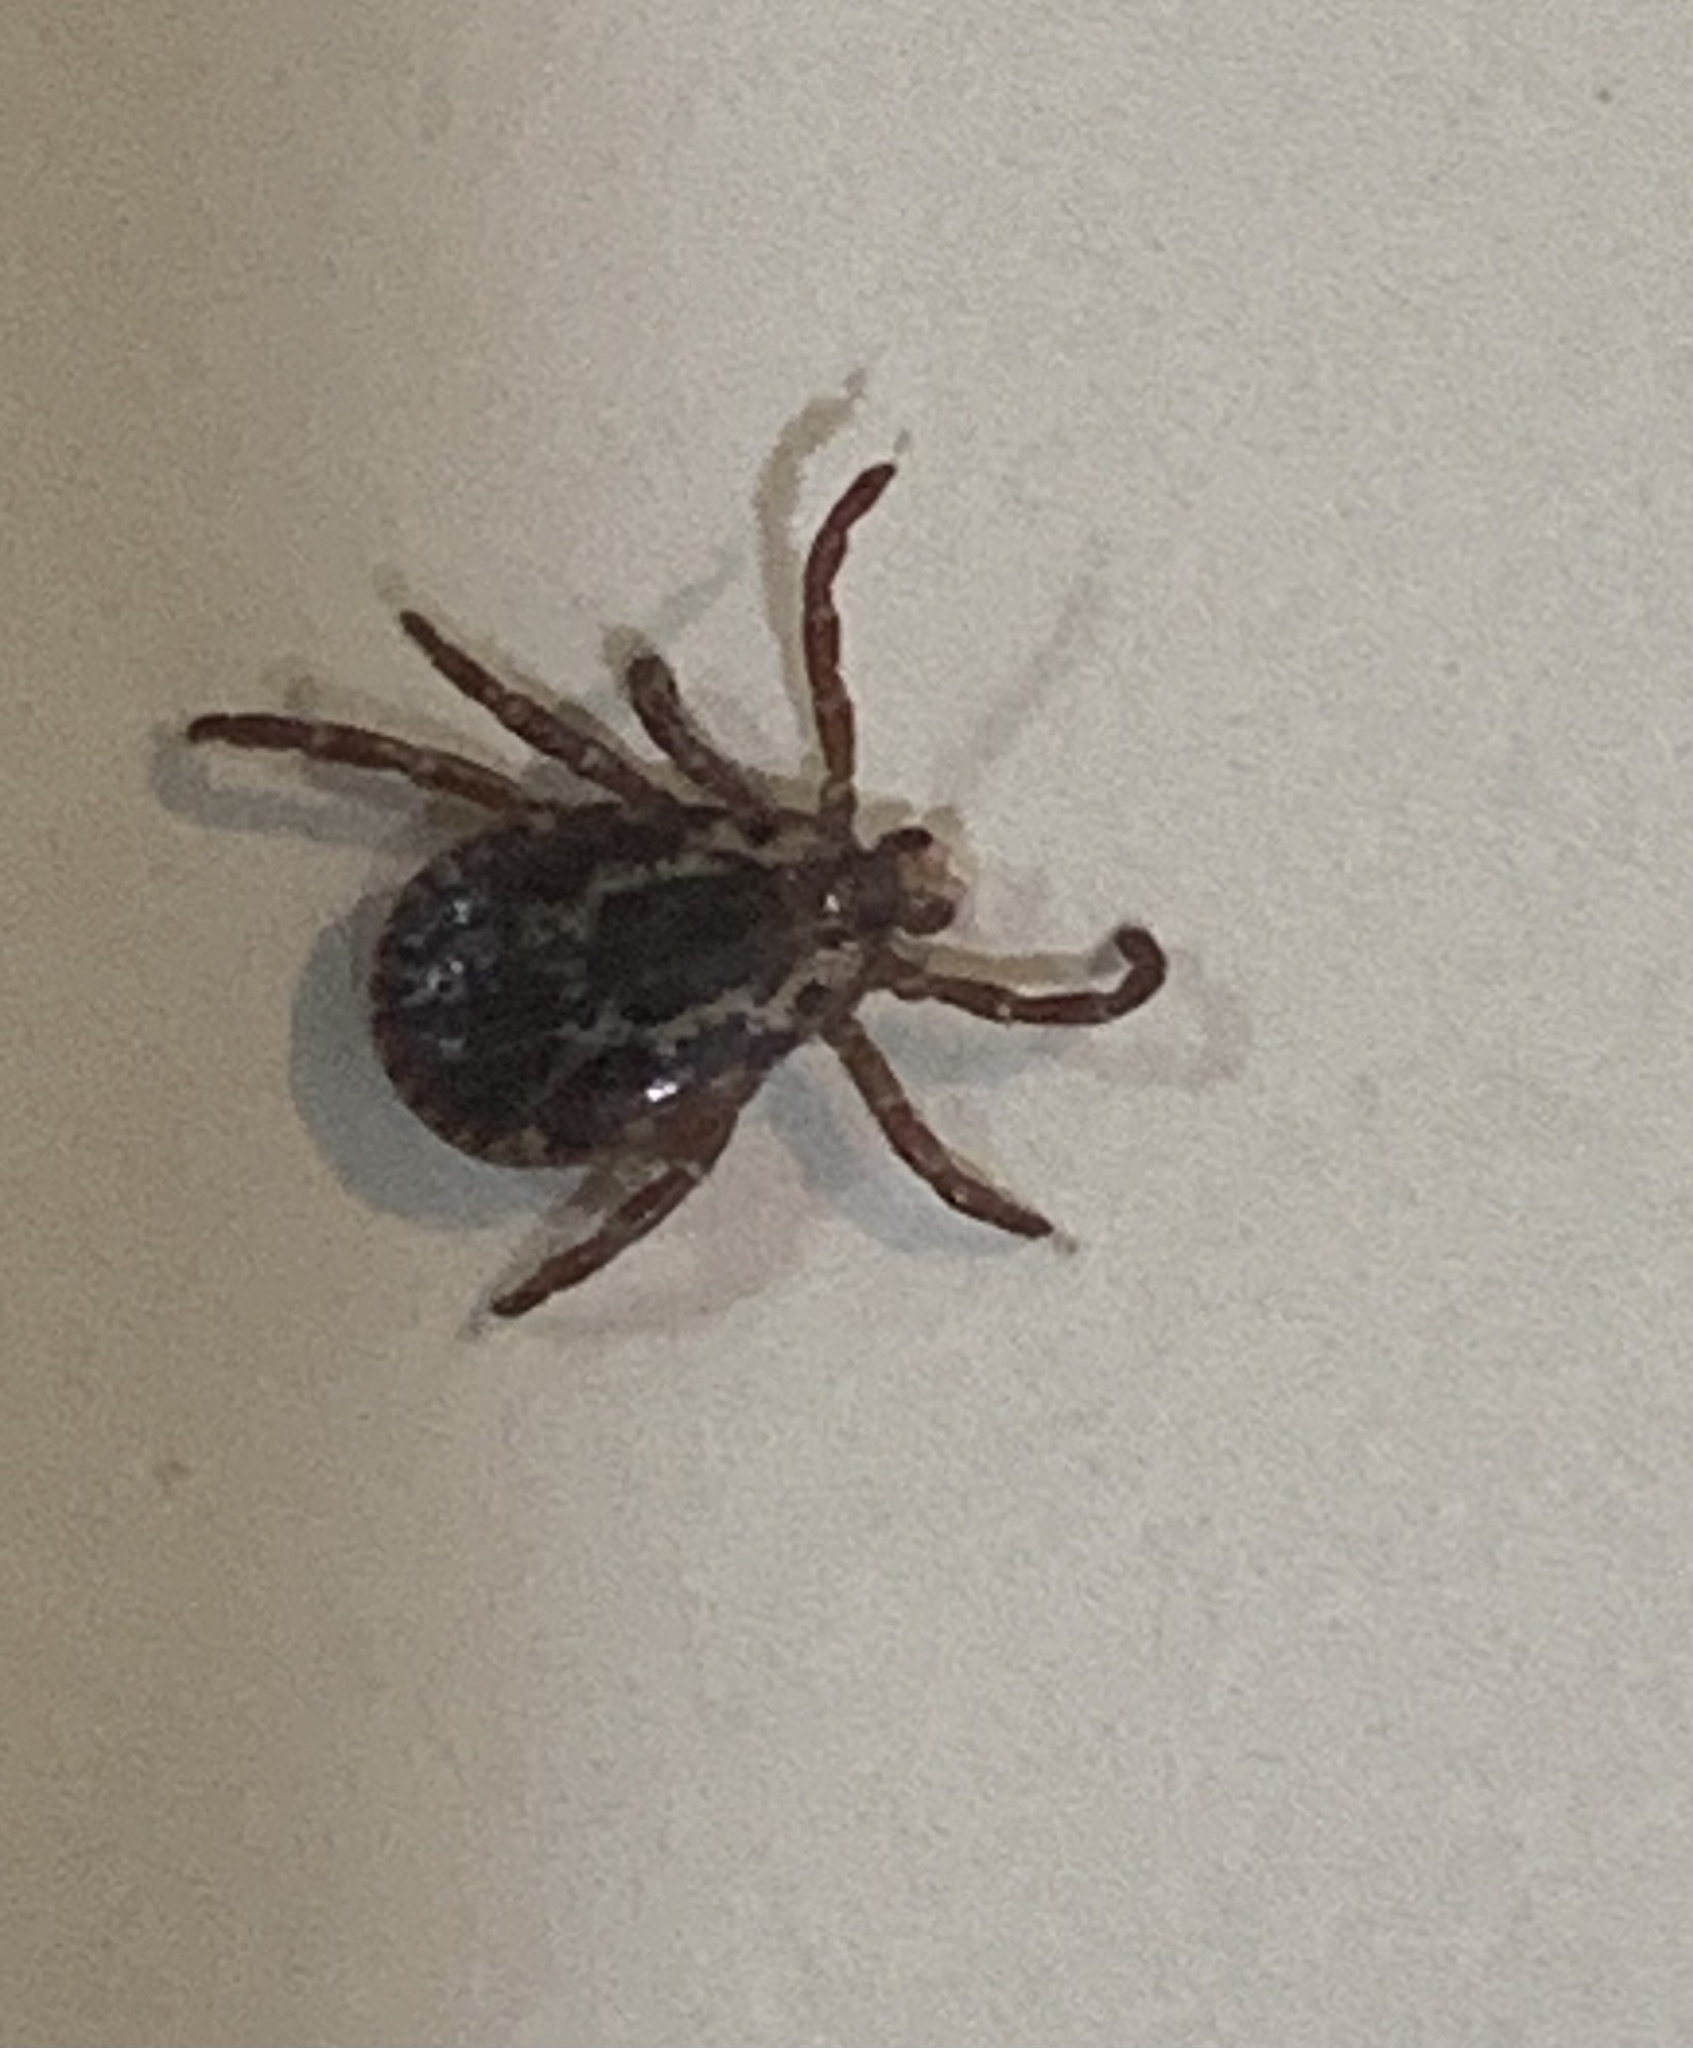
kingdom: Animalia
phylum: Arthropoda
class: Arachnida
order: Ixodida
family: Ixodidae
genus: Dermacentor
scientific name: Dermacentor variabilis
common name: American dog tick
